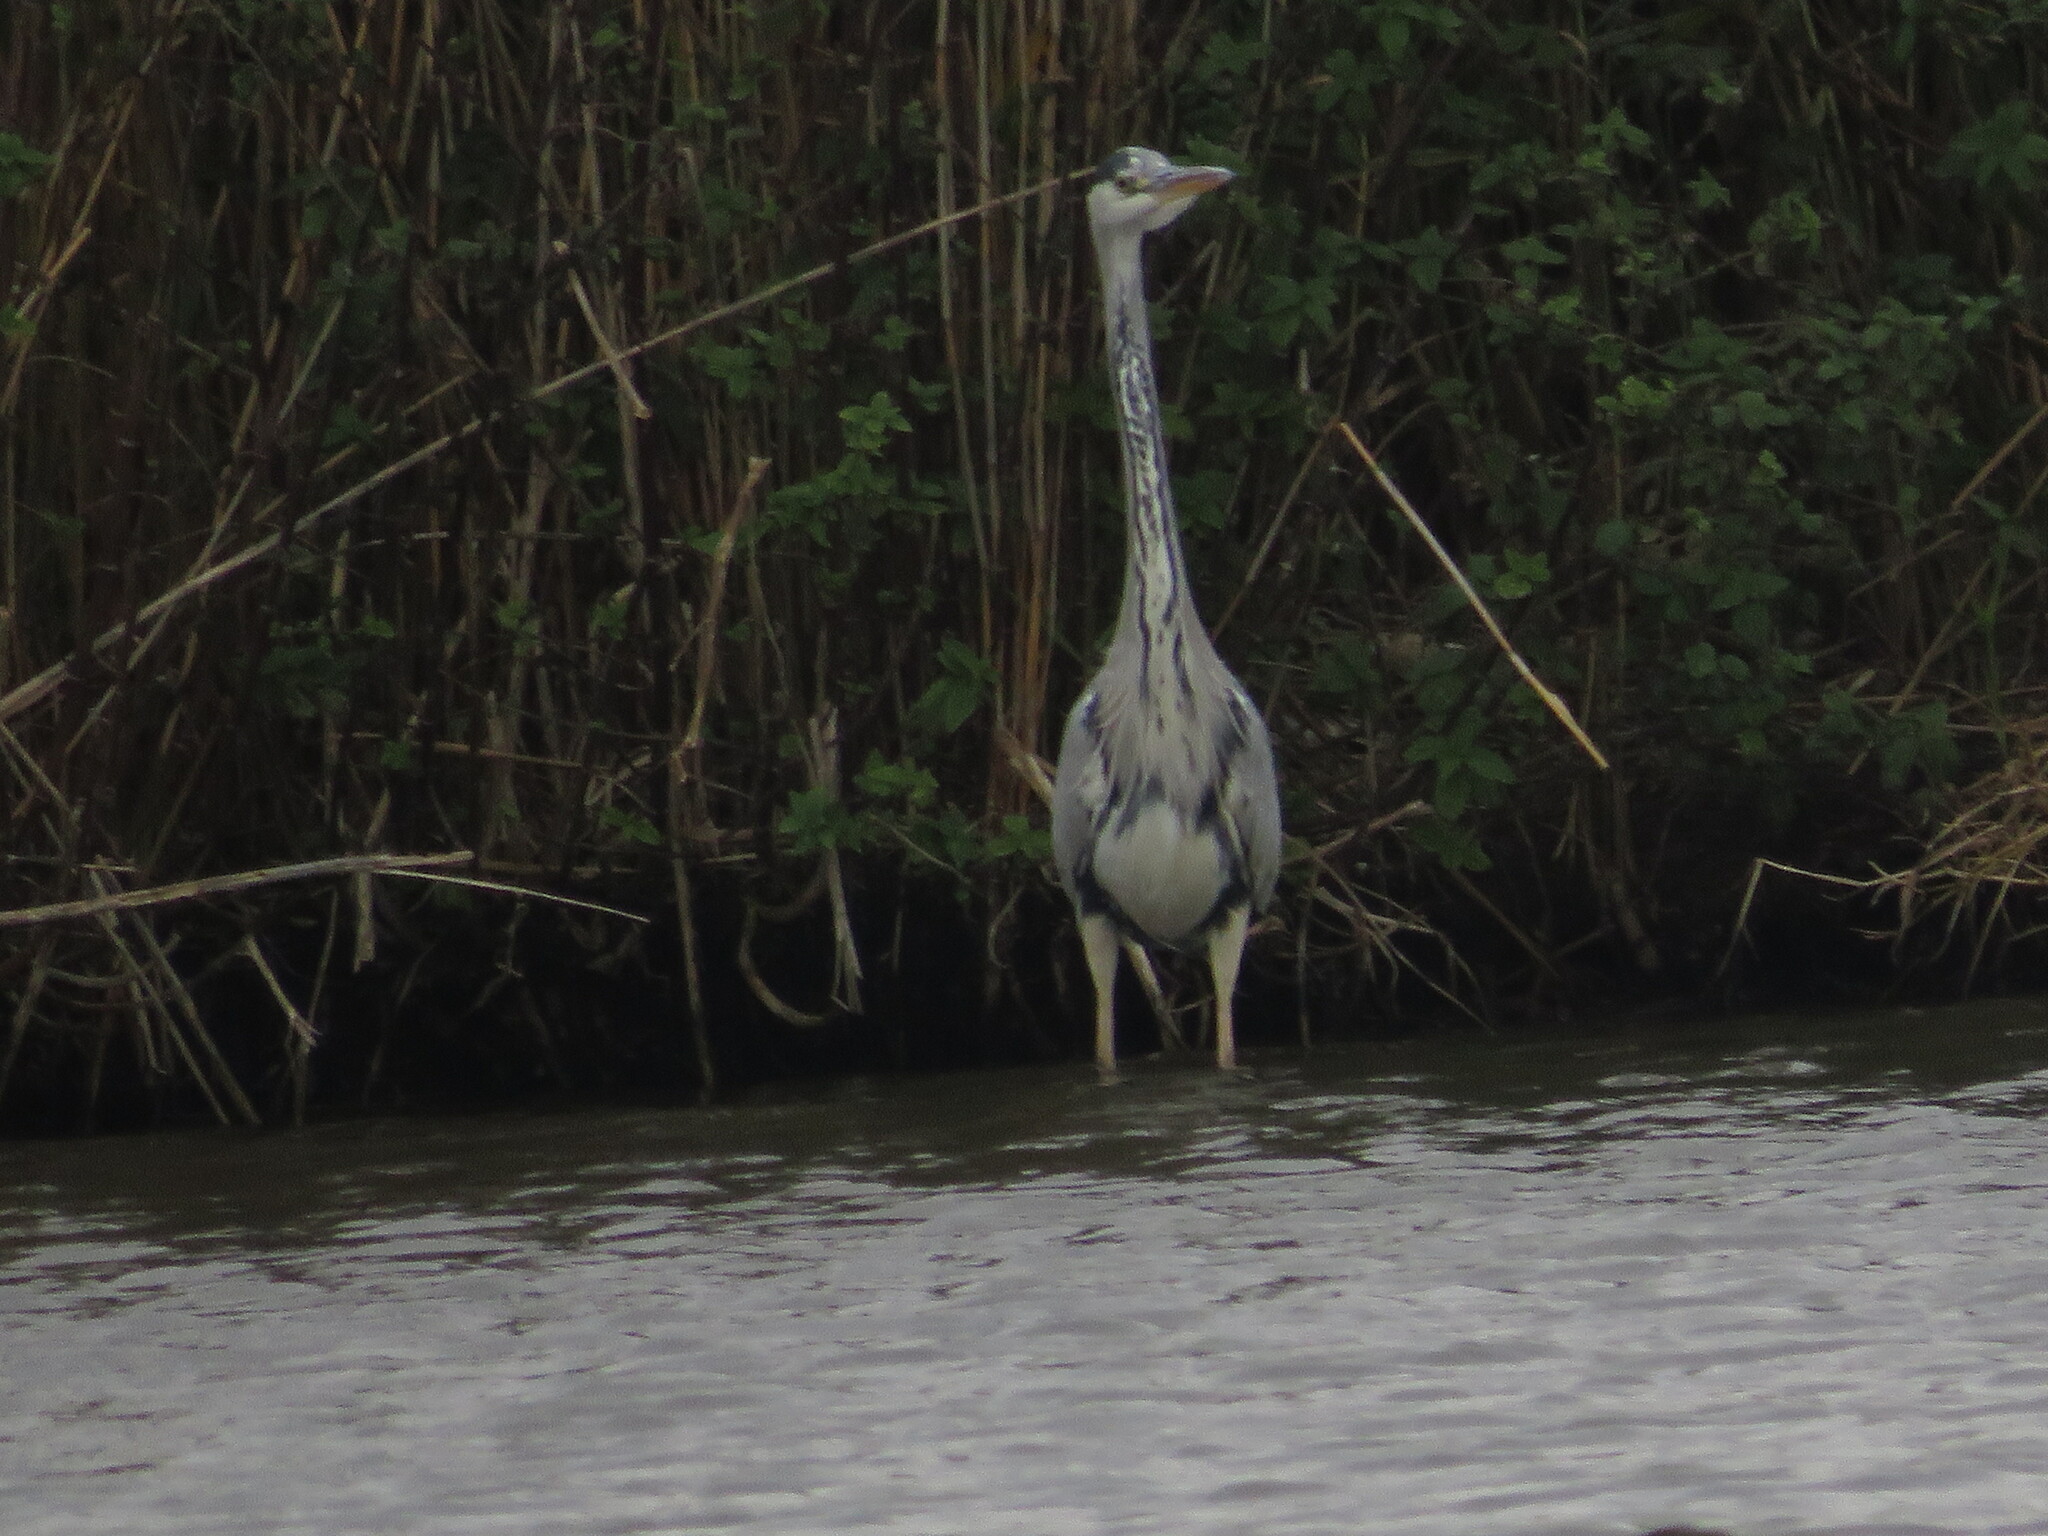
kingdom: Animalia
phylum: Chordata
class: Aves
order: Pelecaniformes
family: Ardeidae
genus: Ardea
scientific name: Ardea cinerea
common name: Grey heron
